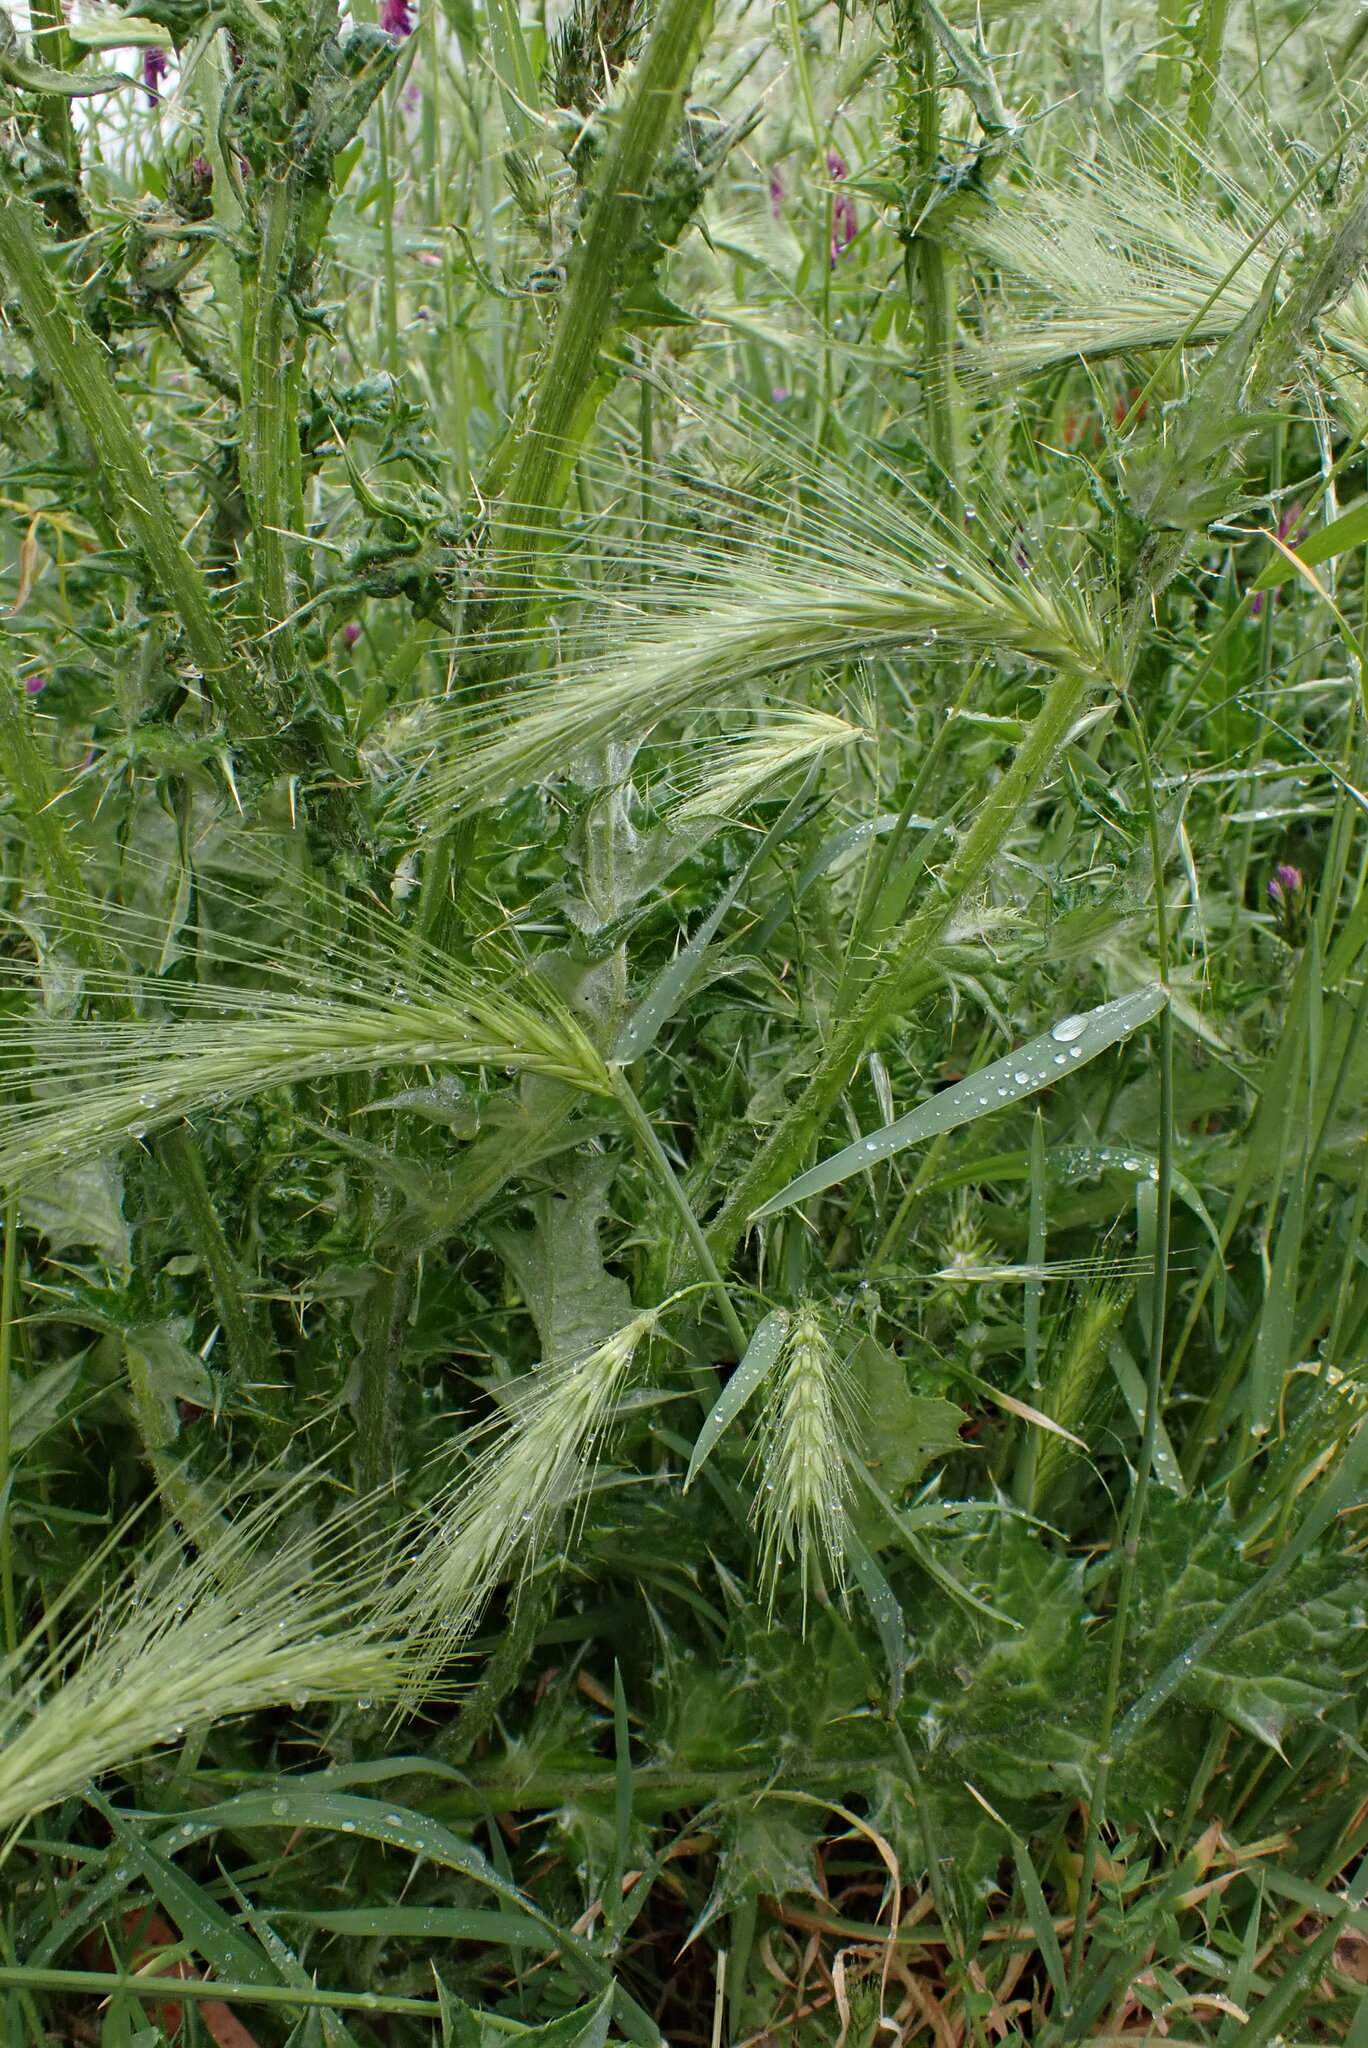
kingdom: Plantae
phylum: Tracheophyta
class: Liliopsida
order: Poales
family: Poaceae
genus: Hordeum
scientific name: Hordeum murinum
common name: Wall barley
